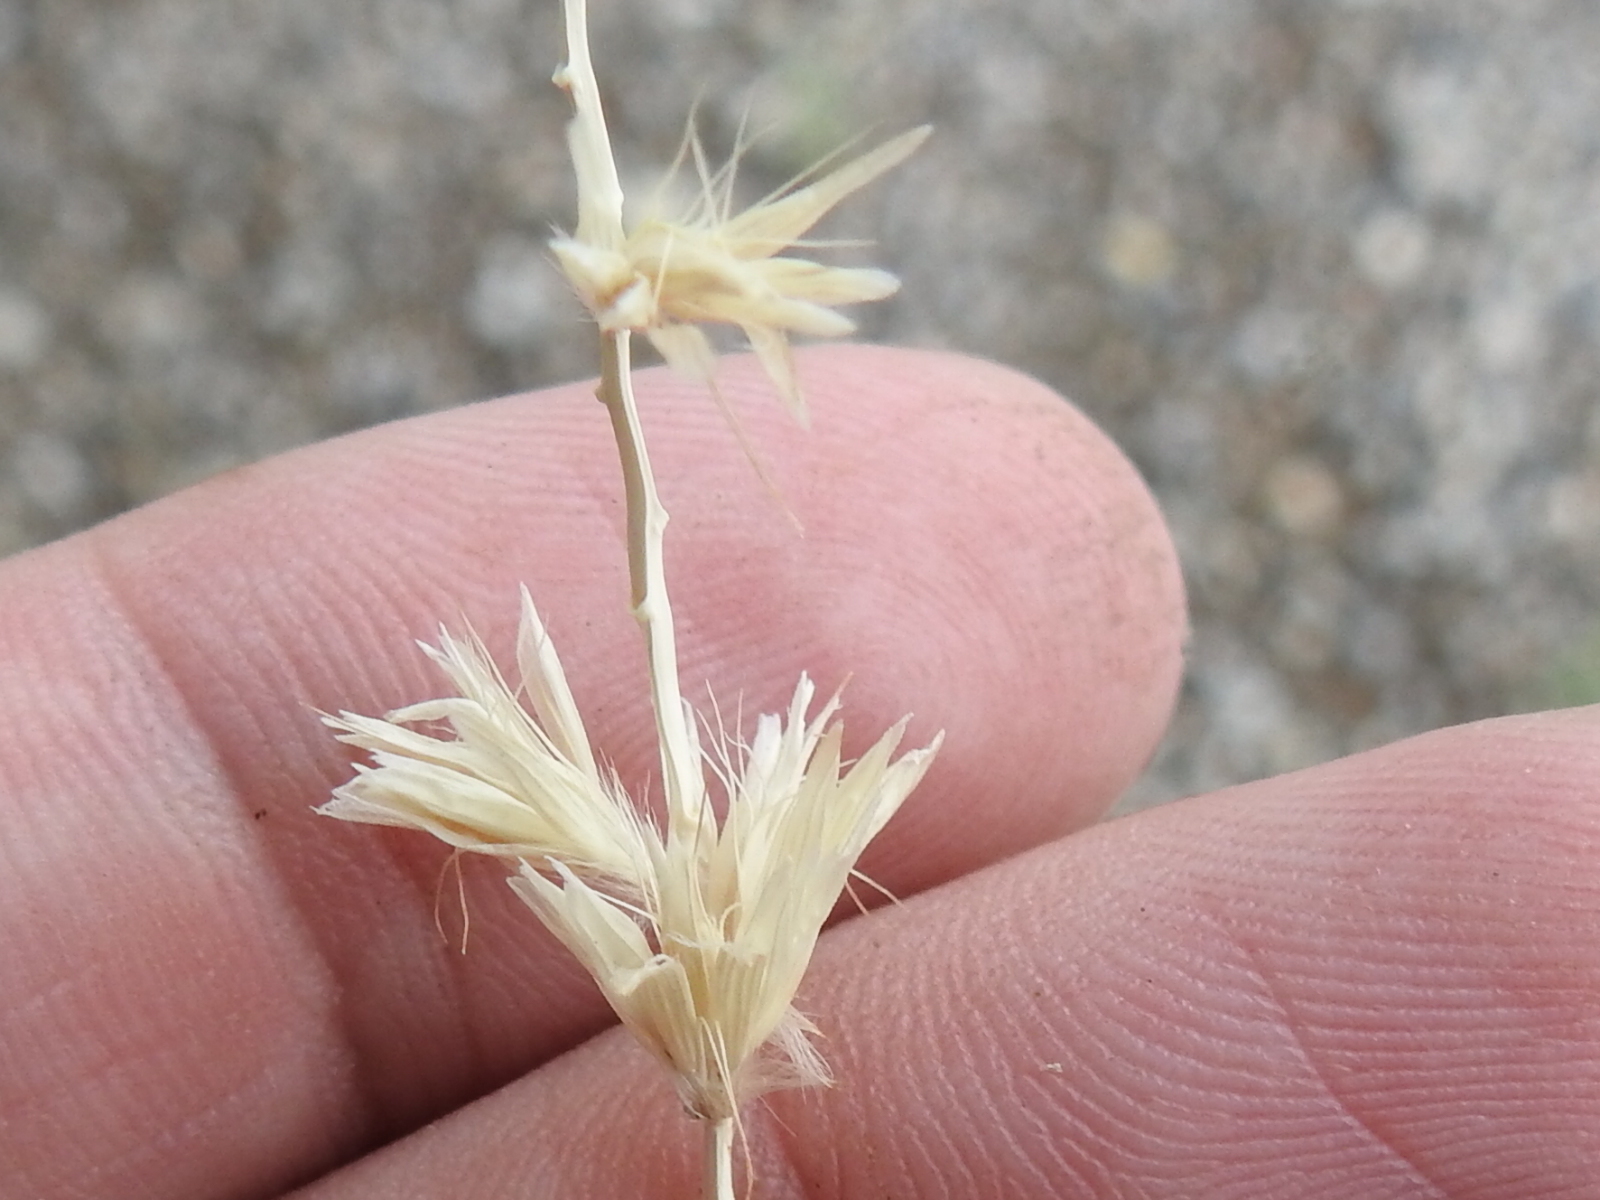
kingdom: Plantae
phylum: Tracheophyta
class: Liliopsida
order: Poales
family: Poaceae
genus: Hilaria
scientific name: Hilaria jamesii
